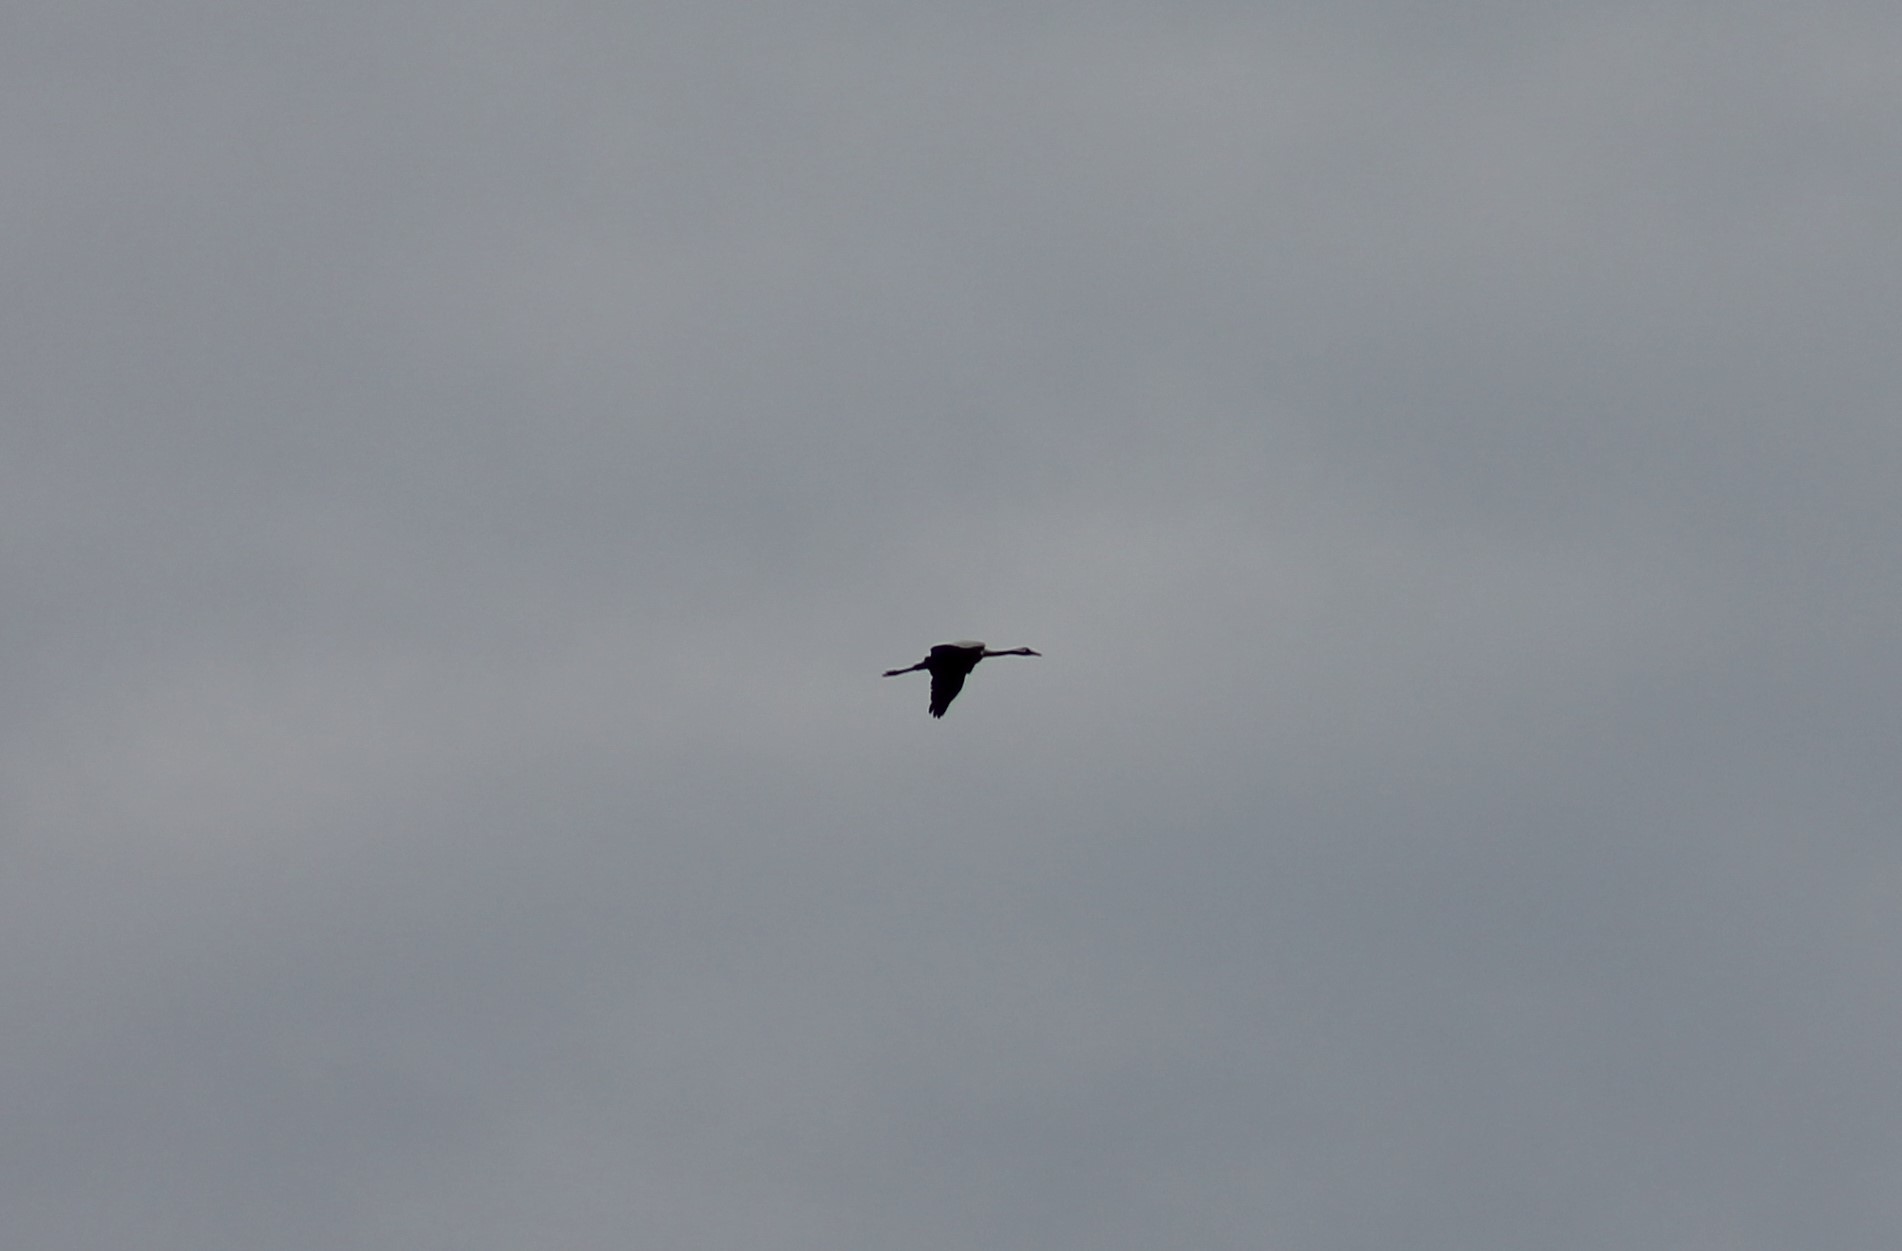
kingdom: Animalia
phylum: Chordata
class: Aves
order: Gruiformes
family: Gruidae
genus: Grus
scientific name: Grus grus
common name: Common crane
